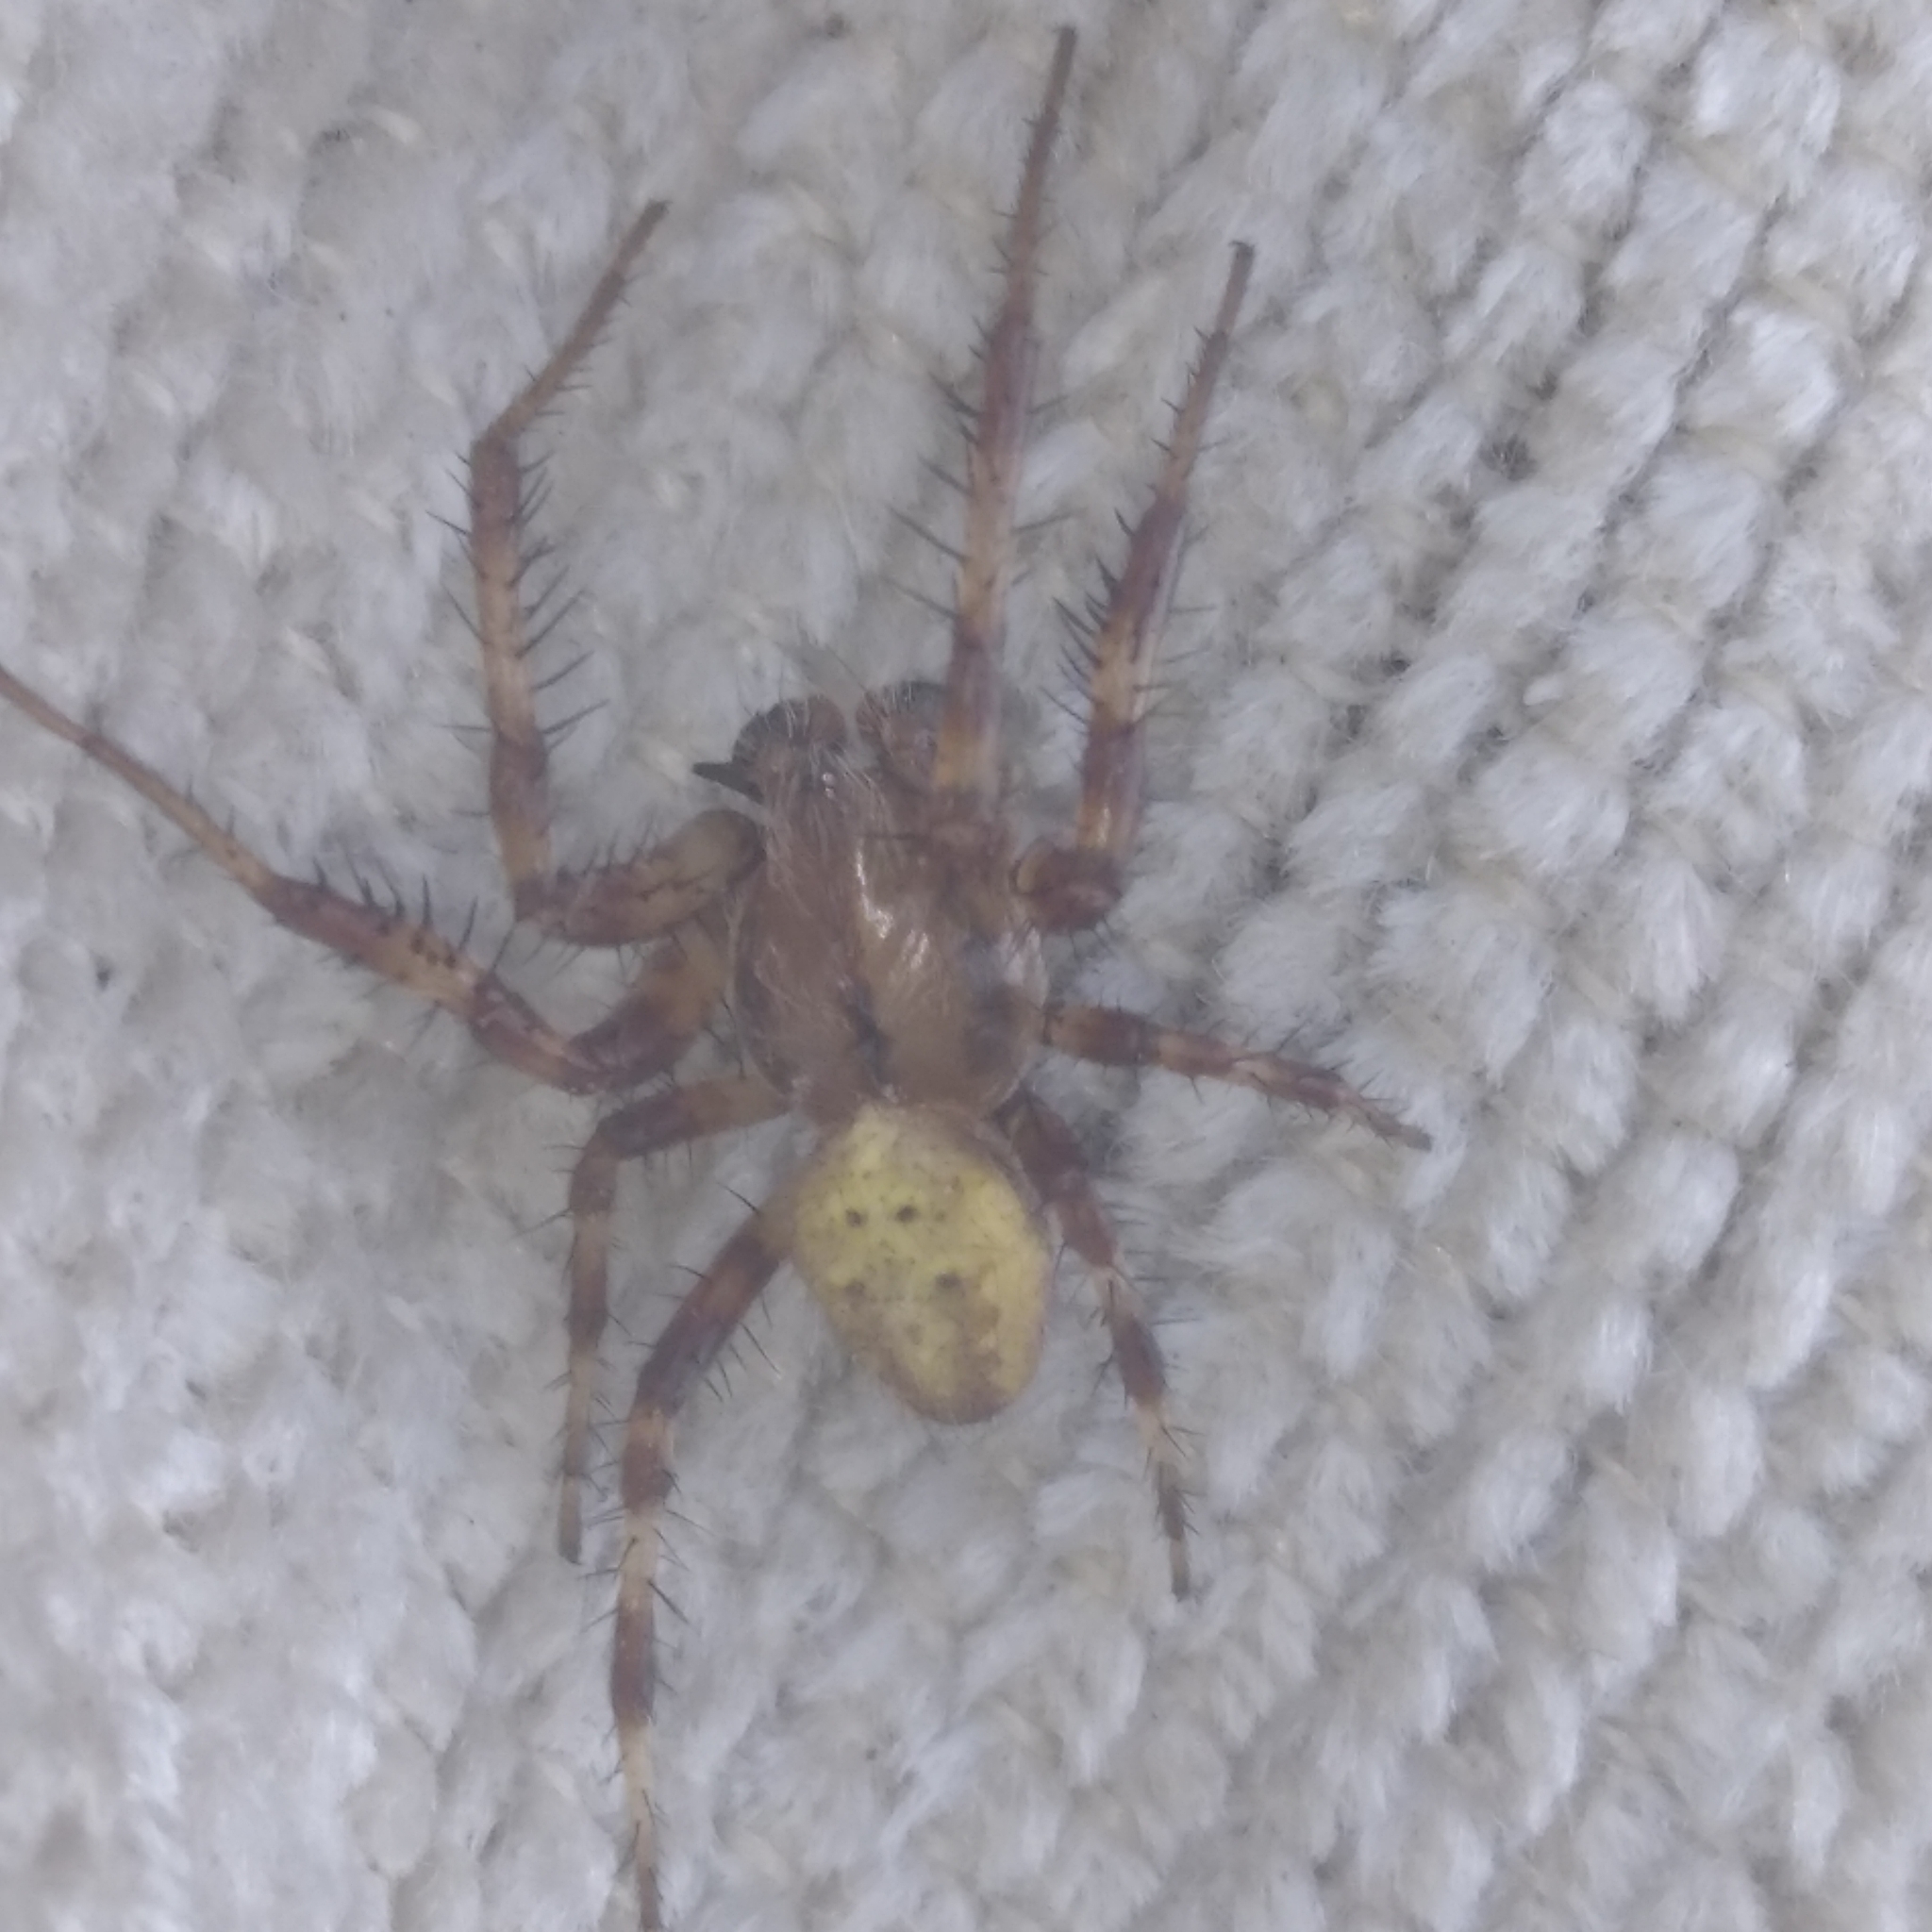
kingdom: Animalia
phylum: Arthropoda
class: Arachnida
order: Araneae
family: Araneidae
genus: Araneus
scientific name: Araneus quadratus
